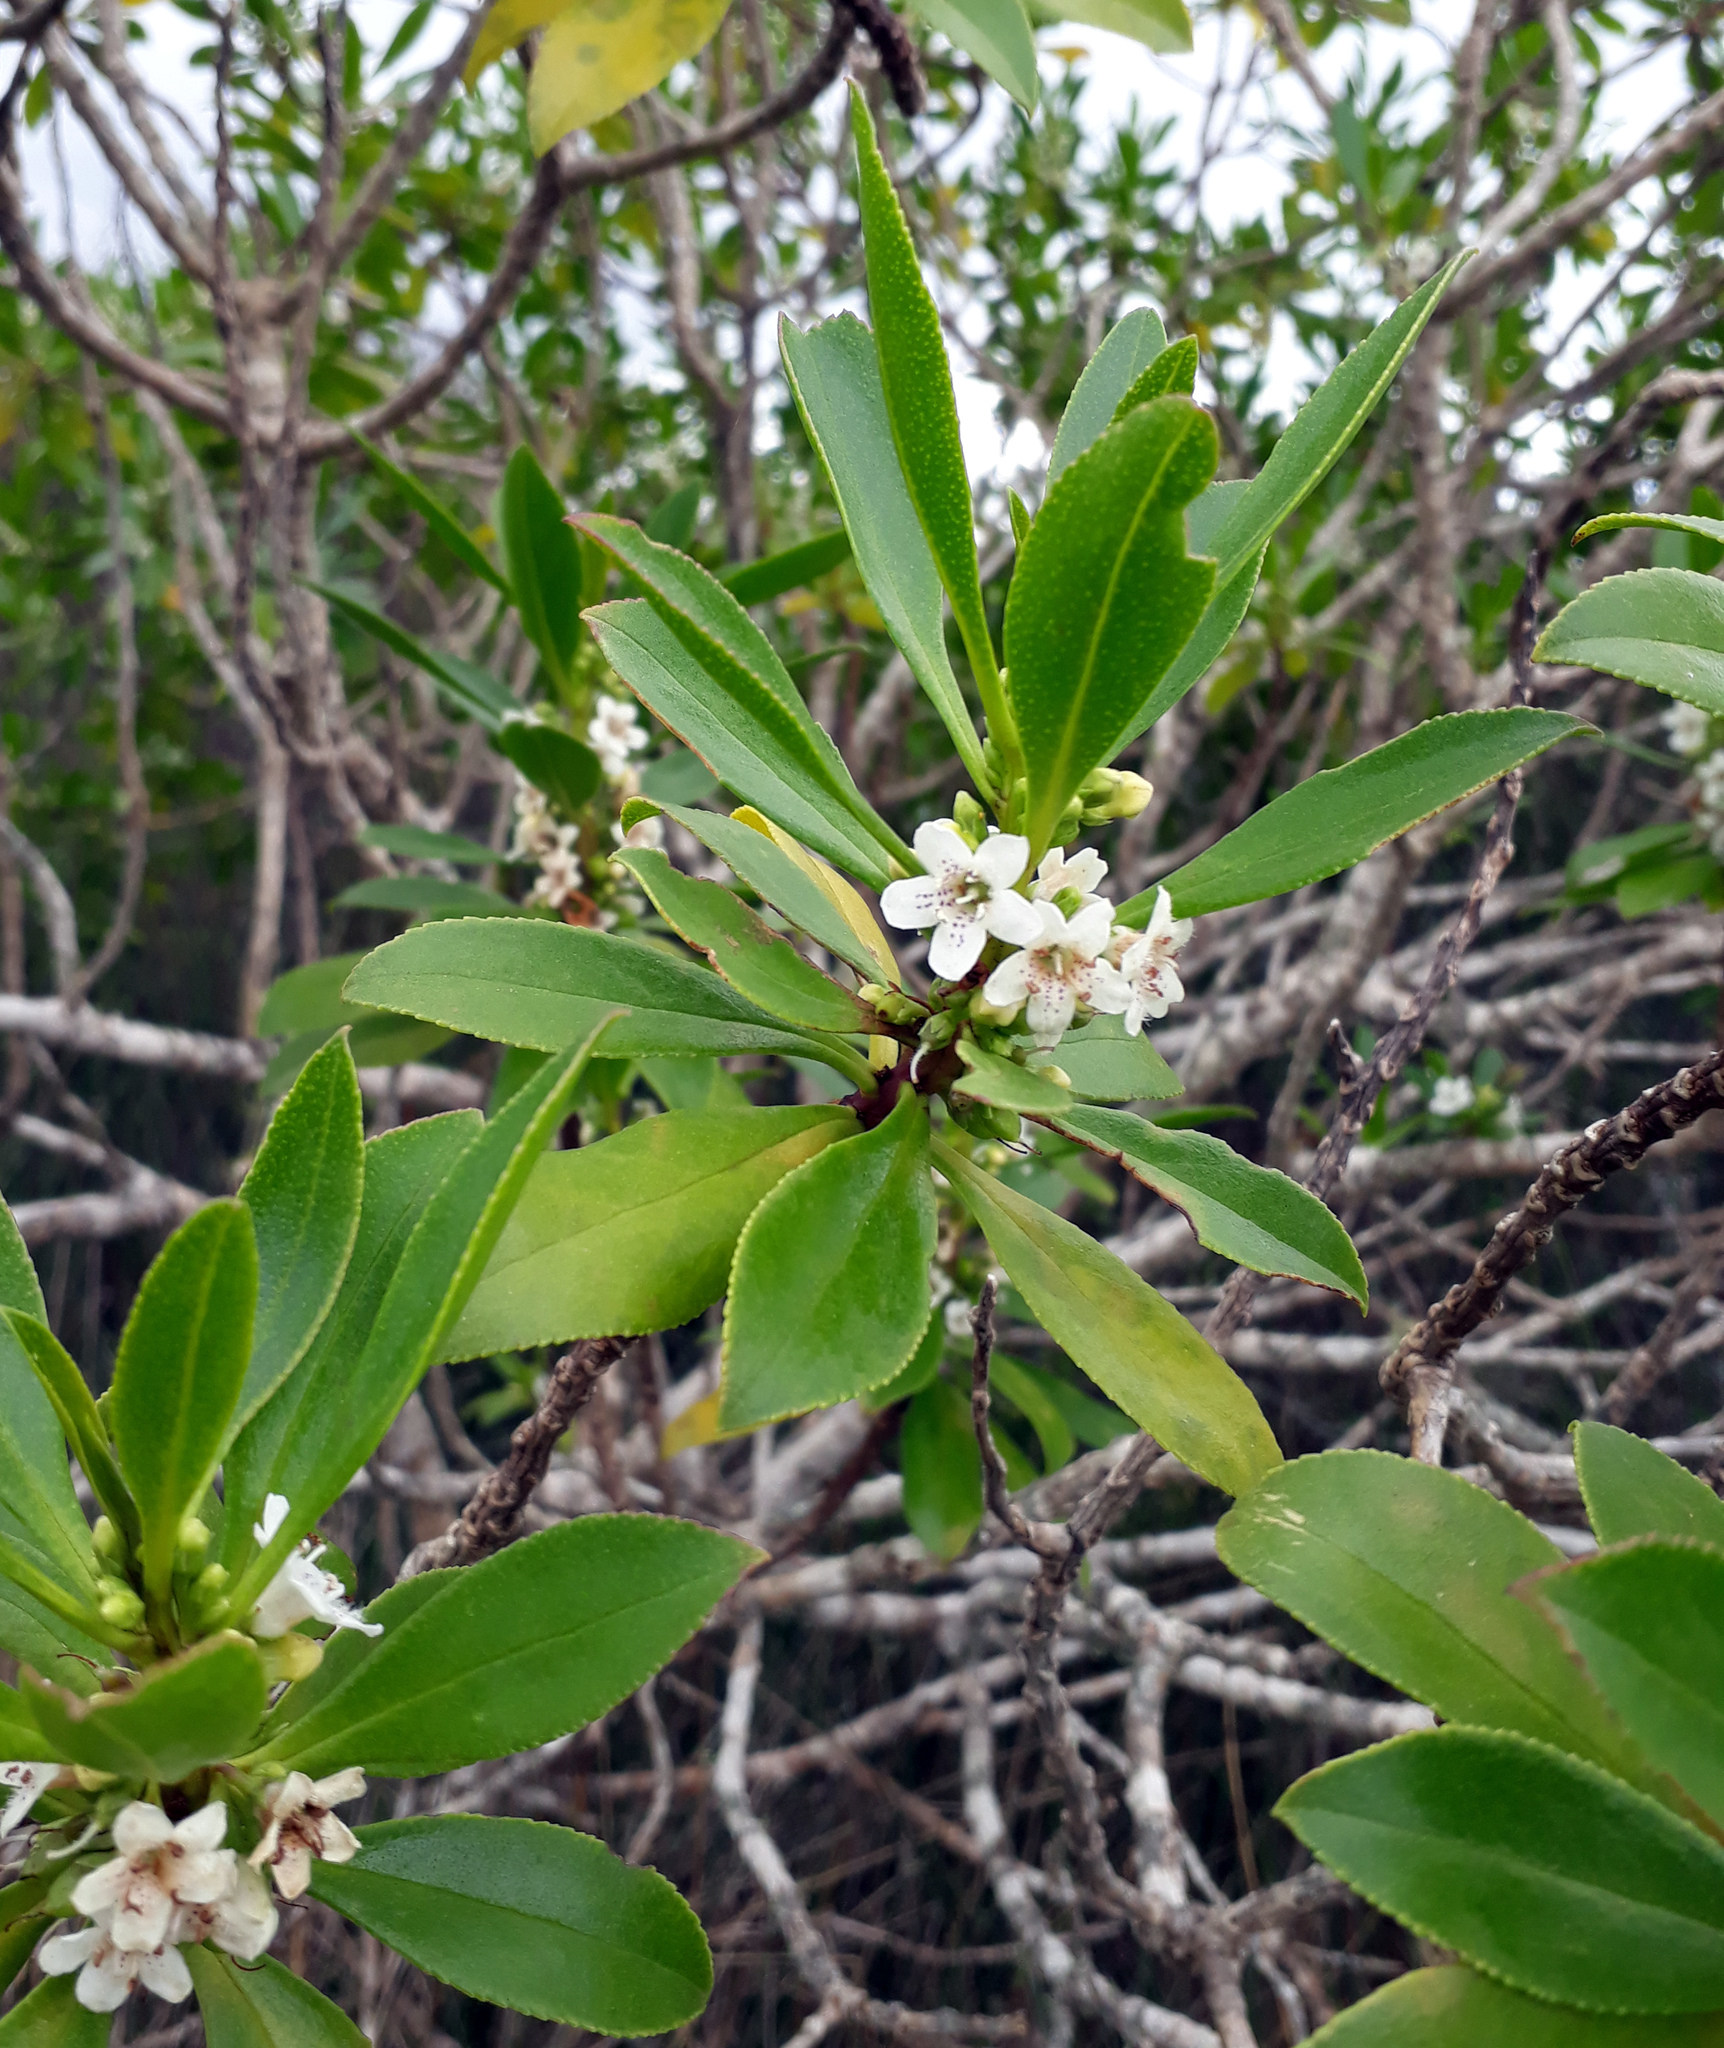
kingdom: Plantae
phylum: Tracheophyta
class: Magnoliopsida
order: Lamiales
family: Scrophulariaceae
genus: Myoporum
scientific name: Myoporum
